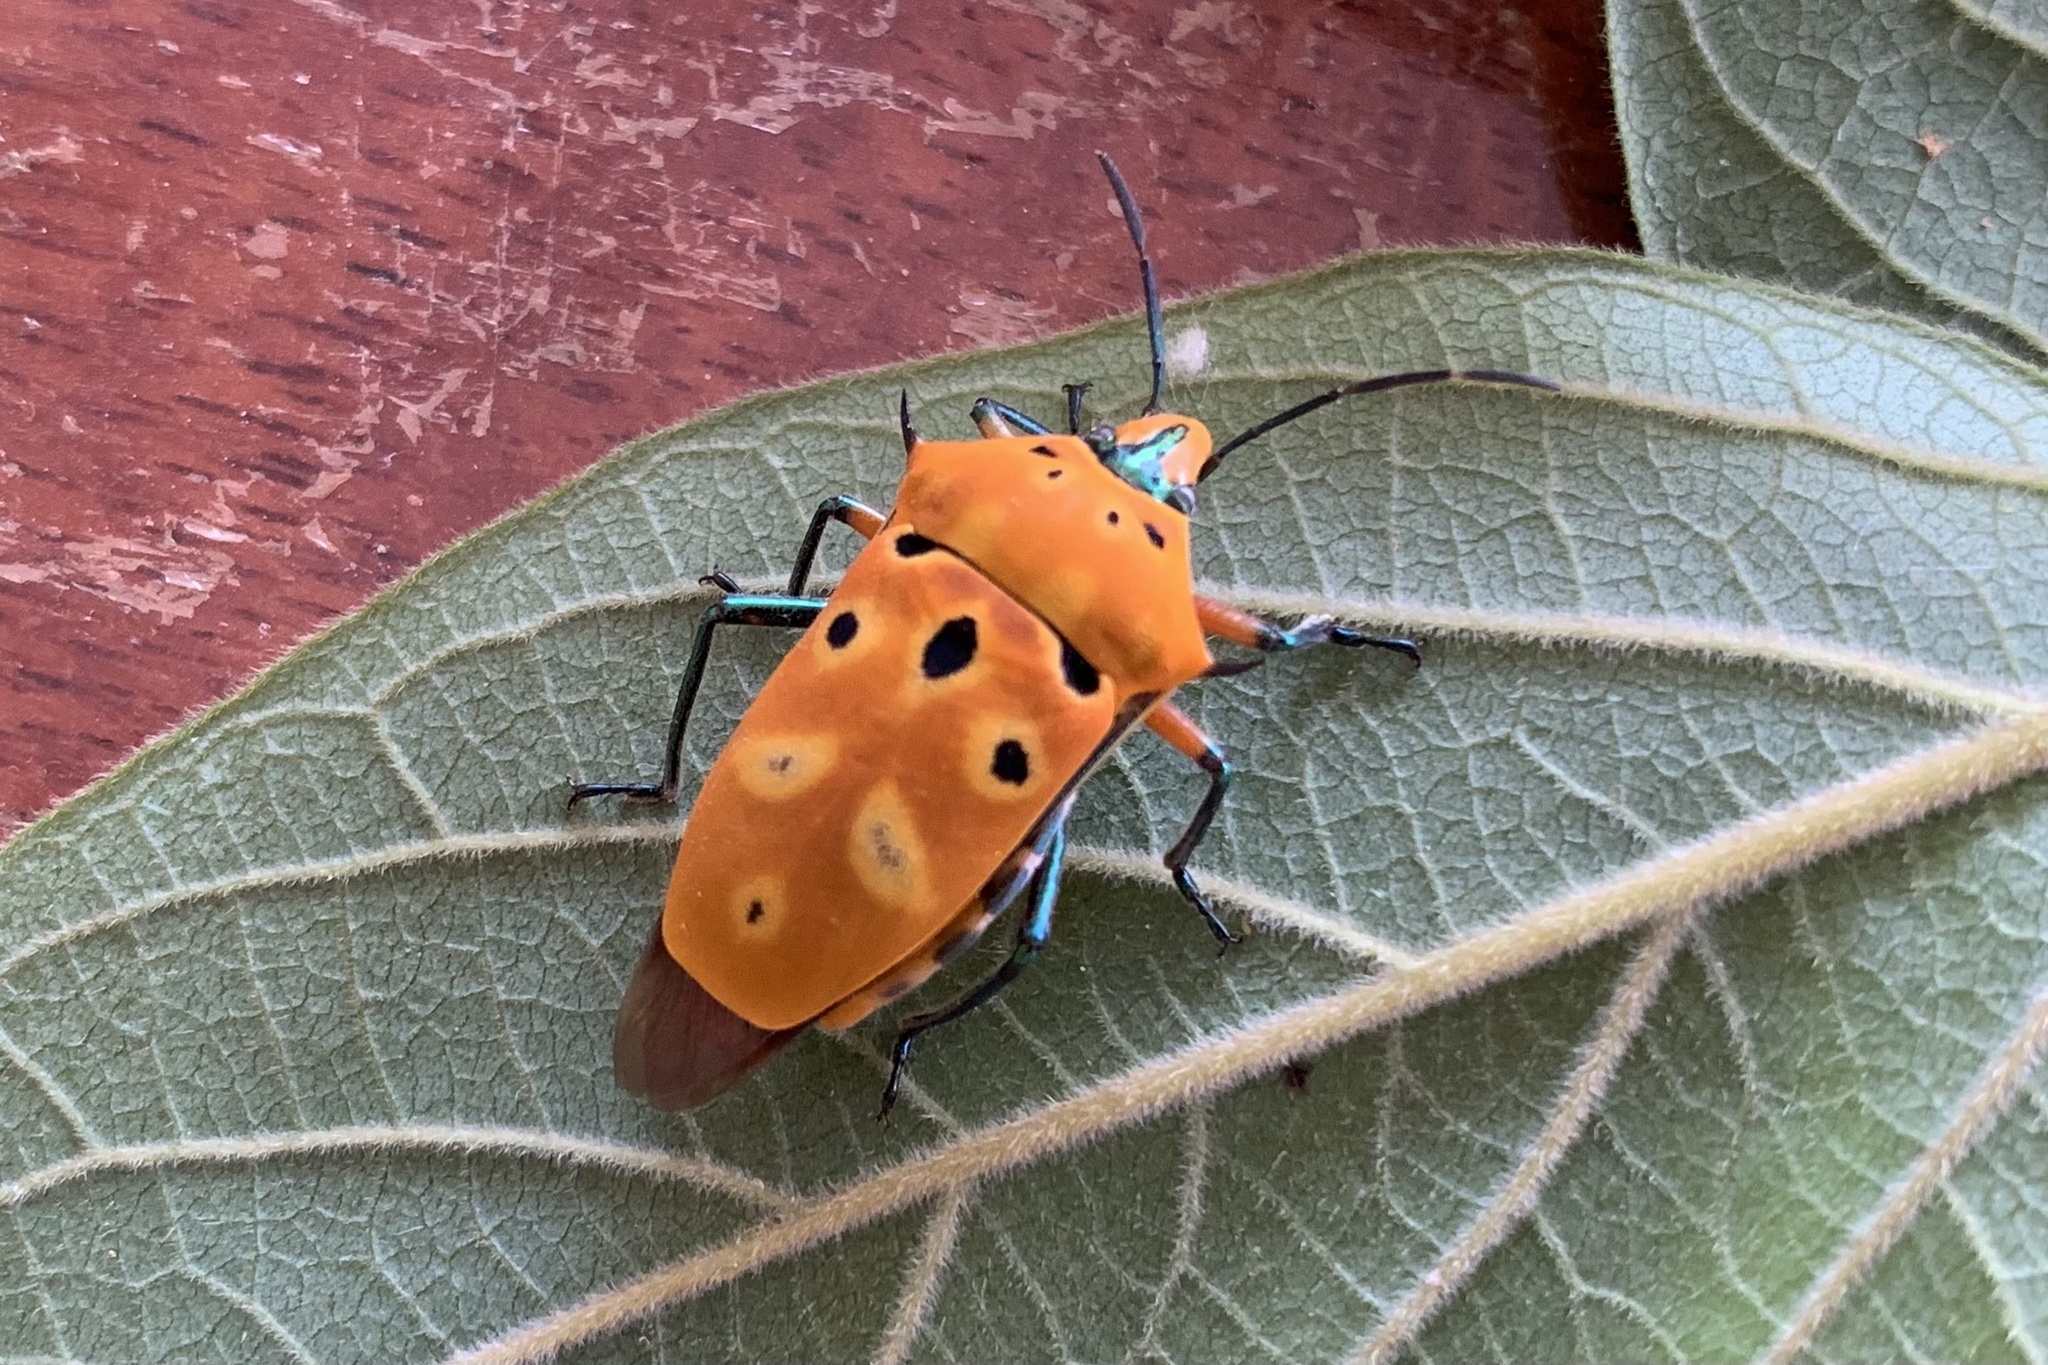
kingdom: Animalia
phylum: Arthropoda
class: Insecta
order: Hemiptera
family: Scutelleridae
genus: Cantao
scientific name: Cantao ocellatus
